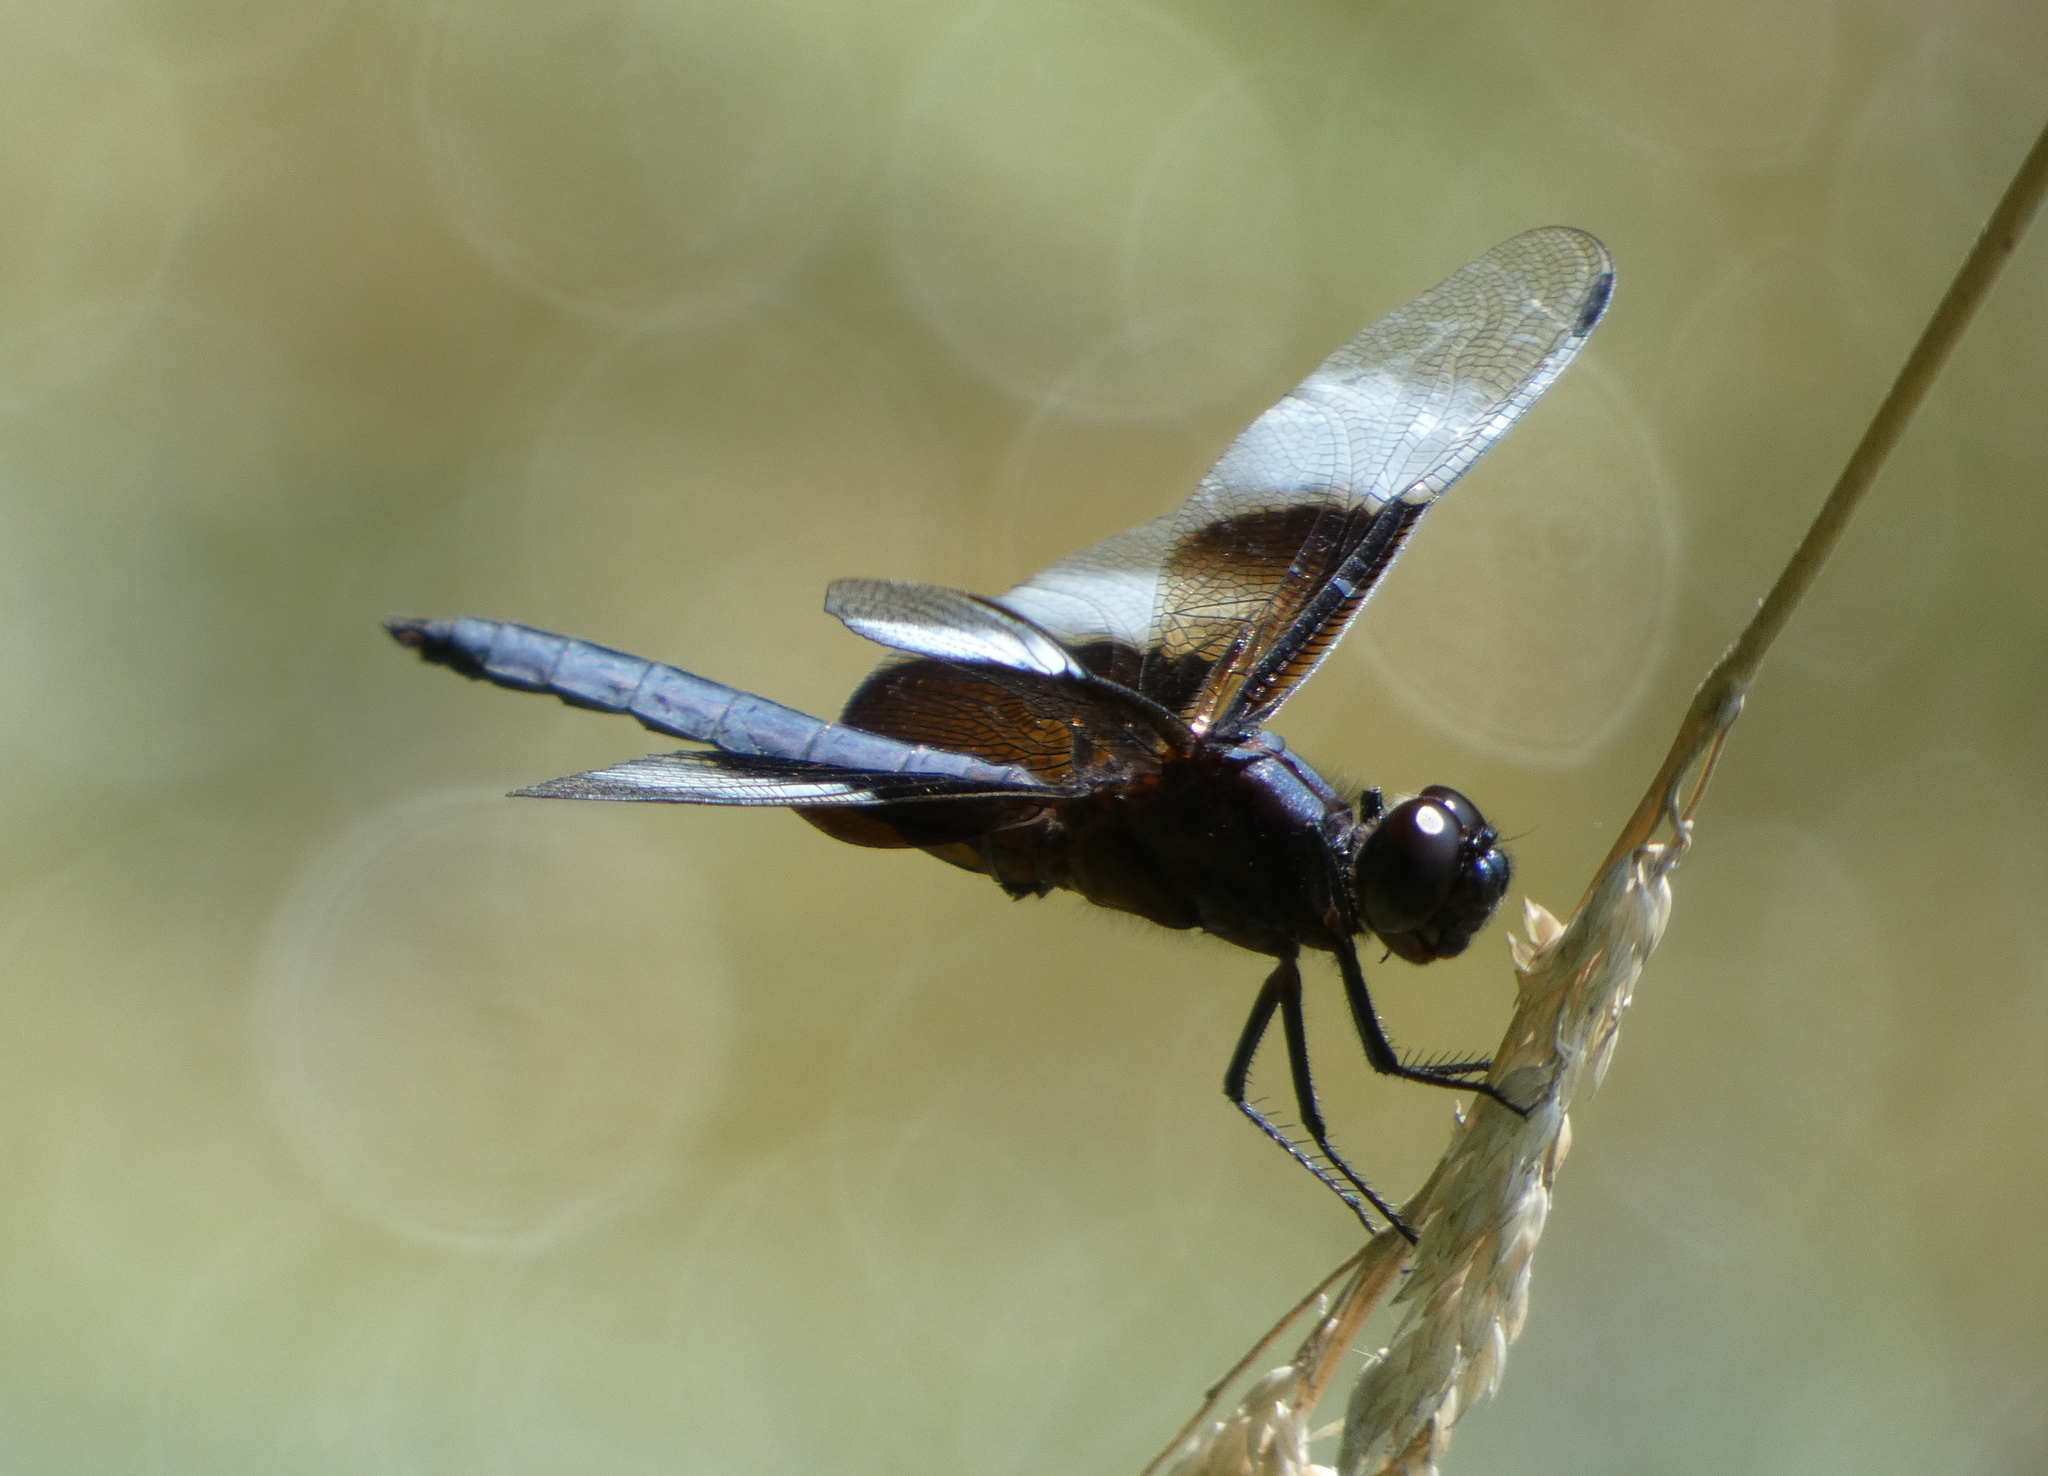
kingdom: Animalia
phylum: Arthropoda
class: Insecta
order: Odonata
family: Libellulidae
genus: Libellula
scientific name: Libellula luctuosa
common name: Widow skimmer
